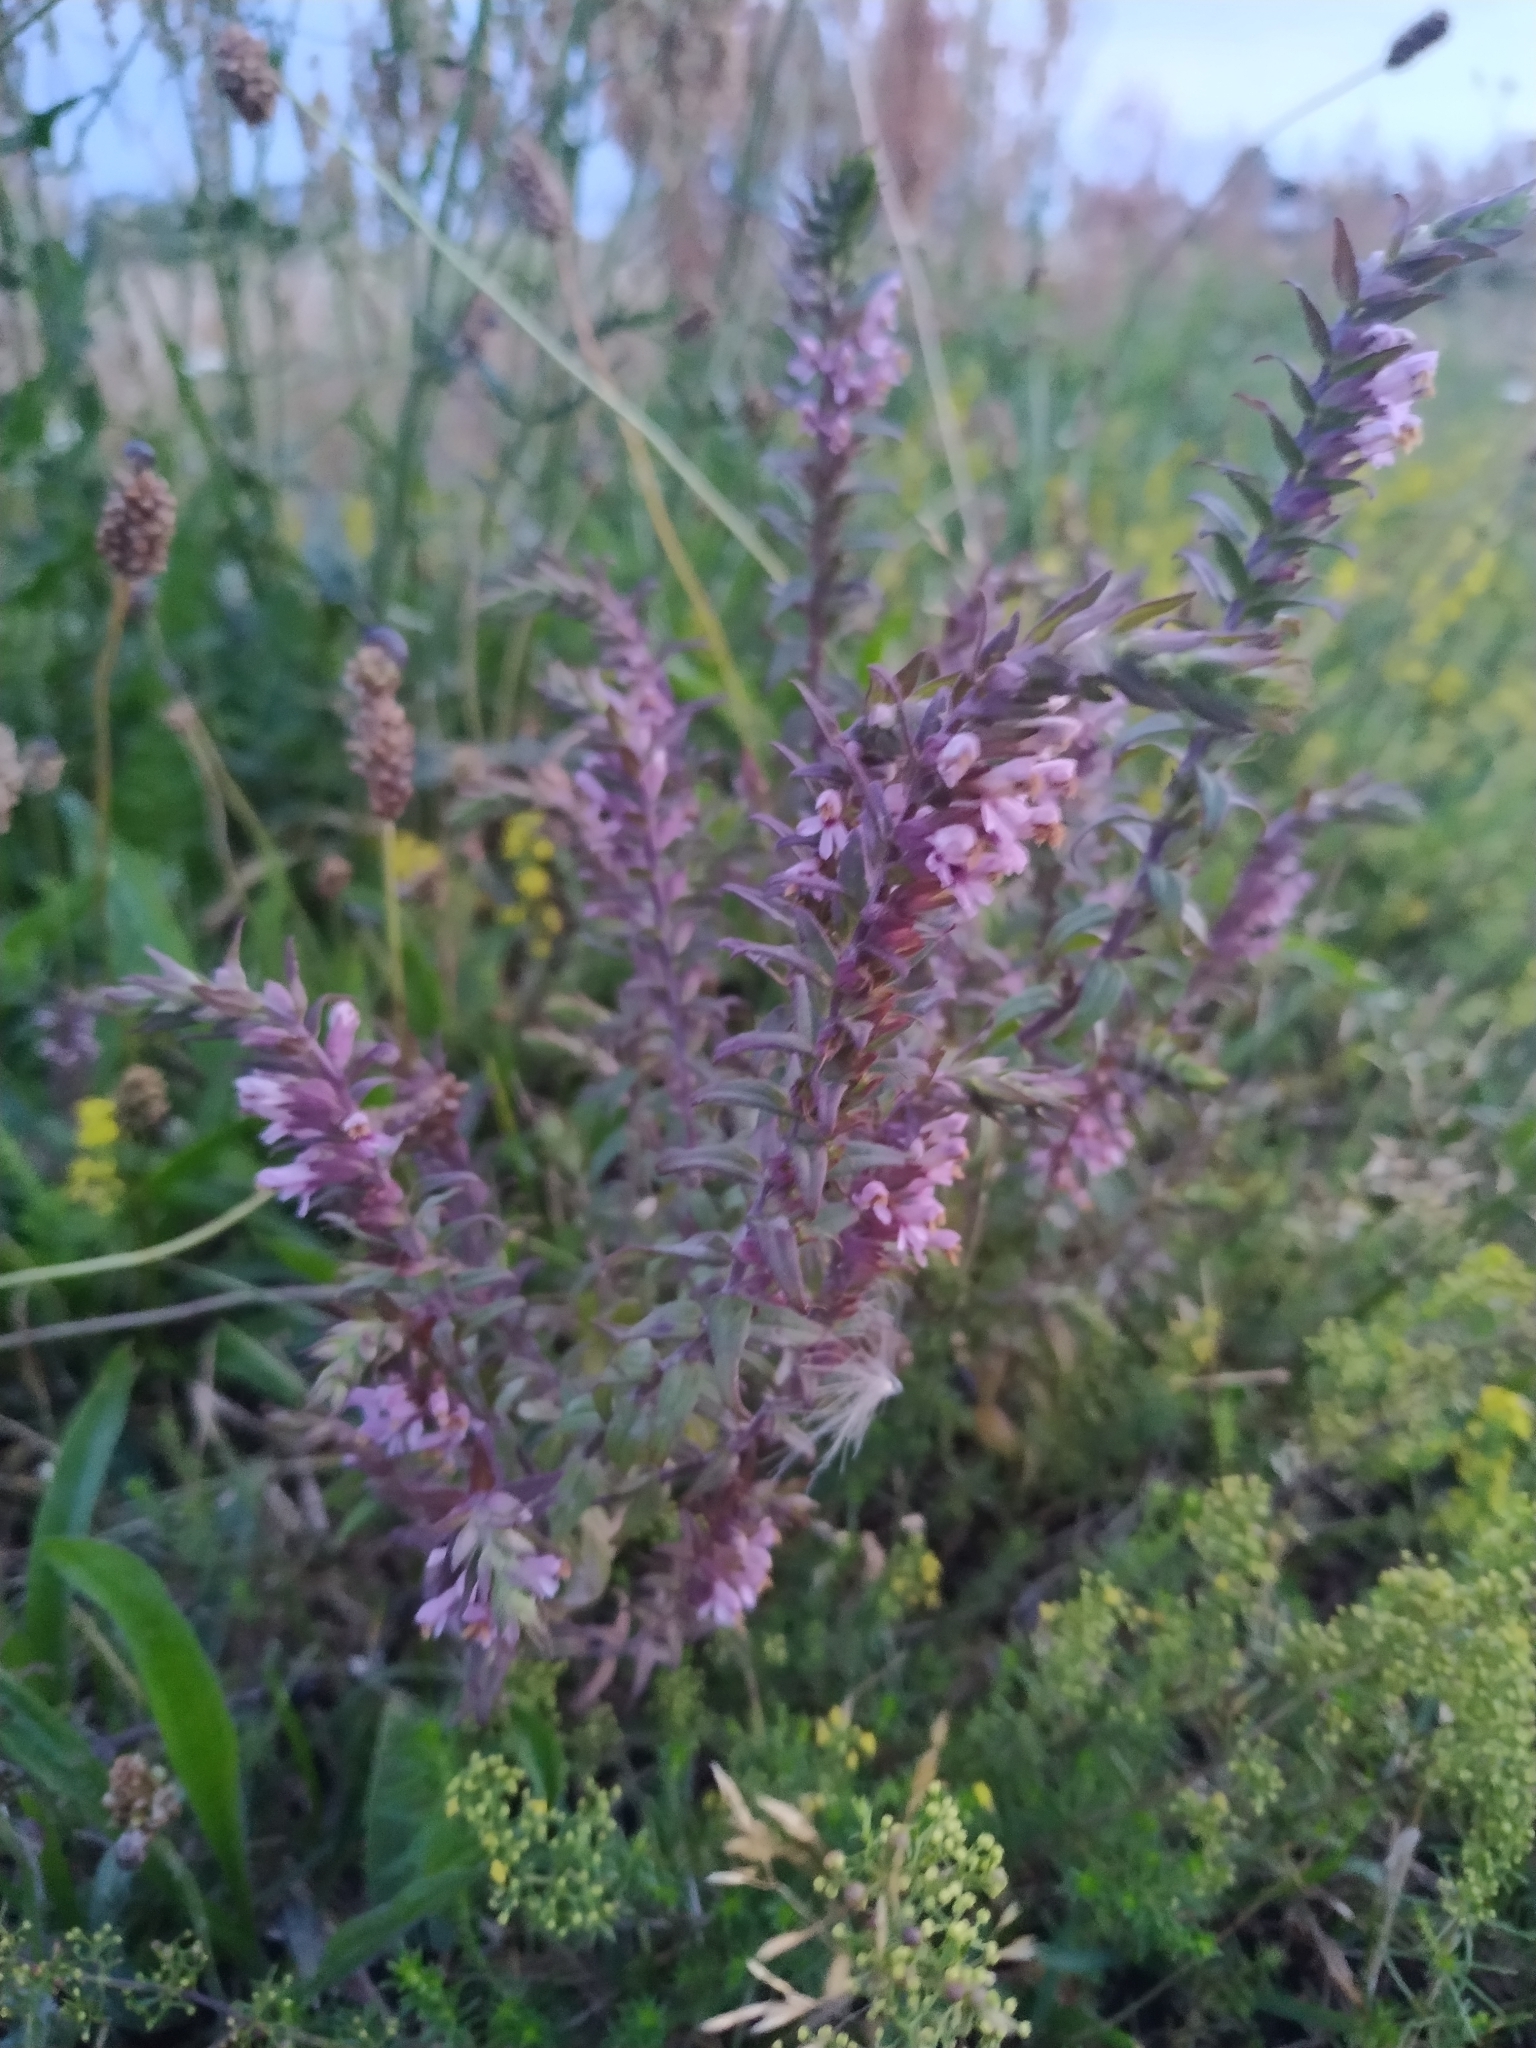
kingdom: Plantae
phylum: Tracheophyta
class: Magnoliopsida
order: Lamiales
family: Orobanchaceae
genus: Odontites
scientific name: Odontites vulgaris
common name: Broomrape
